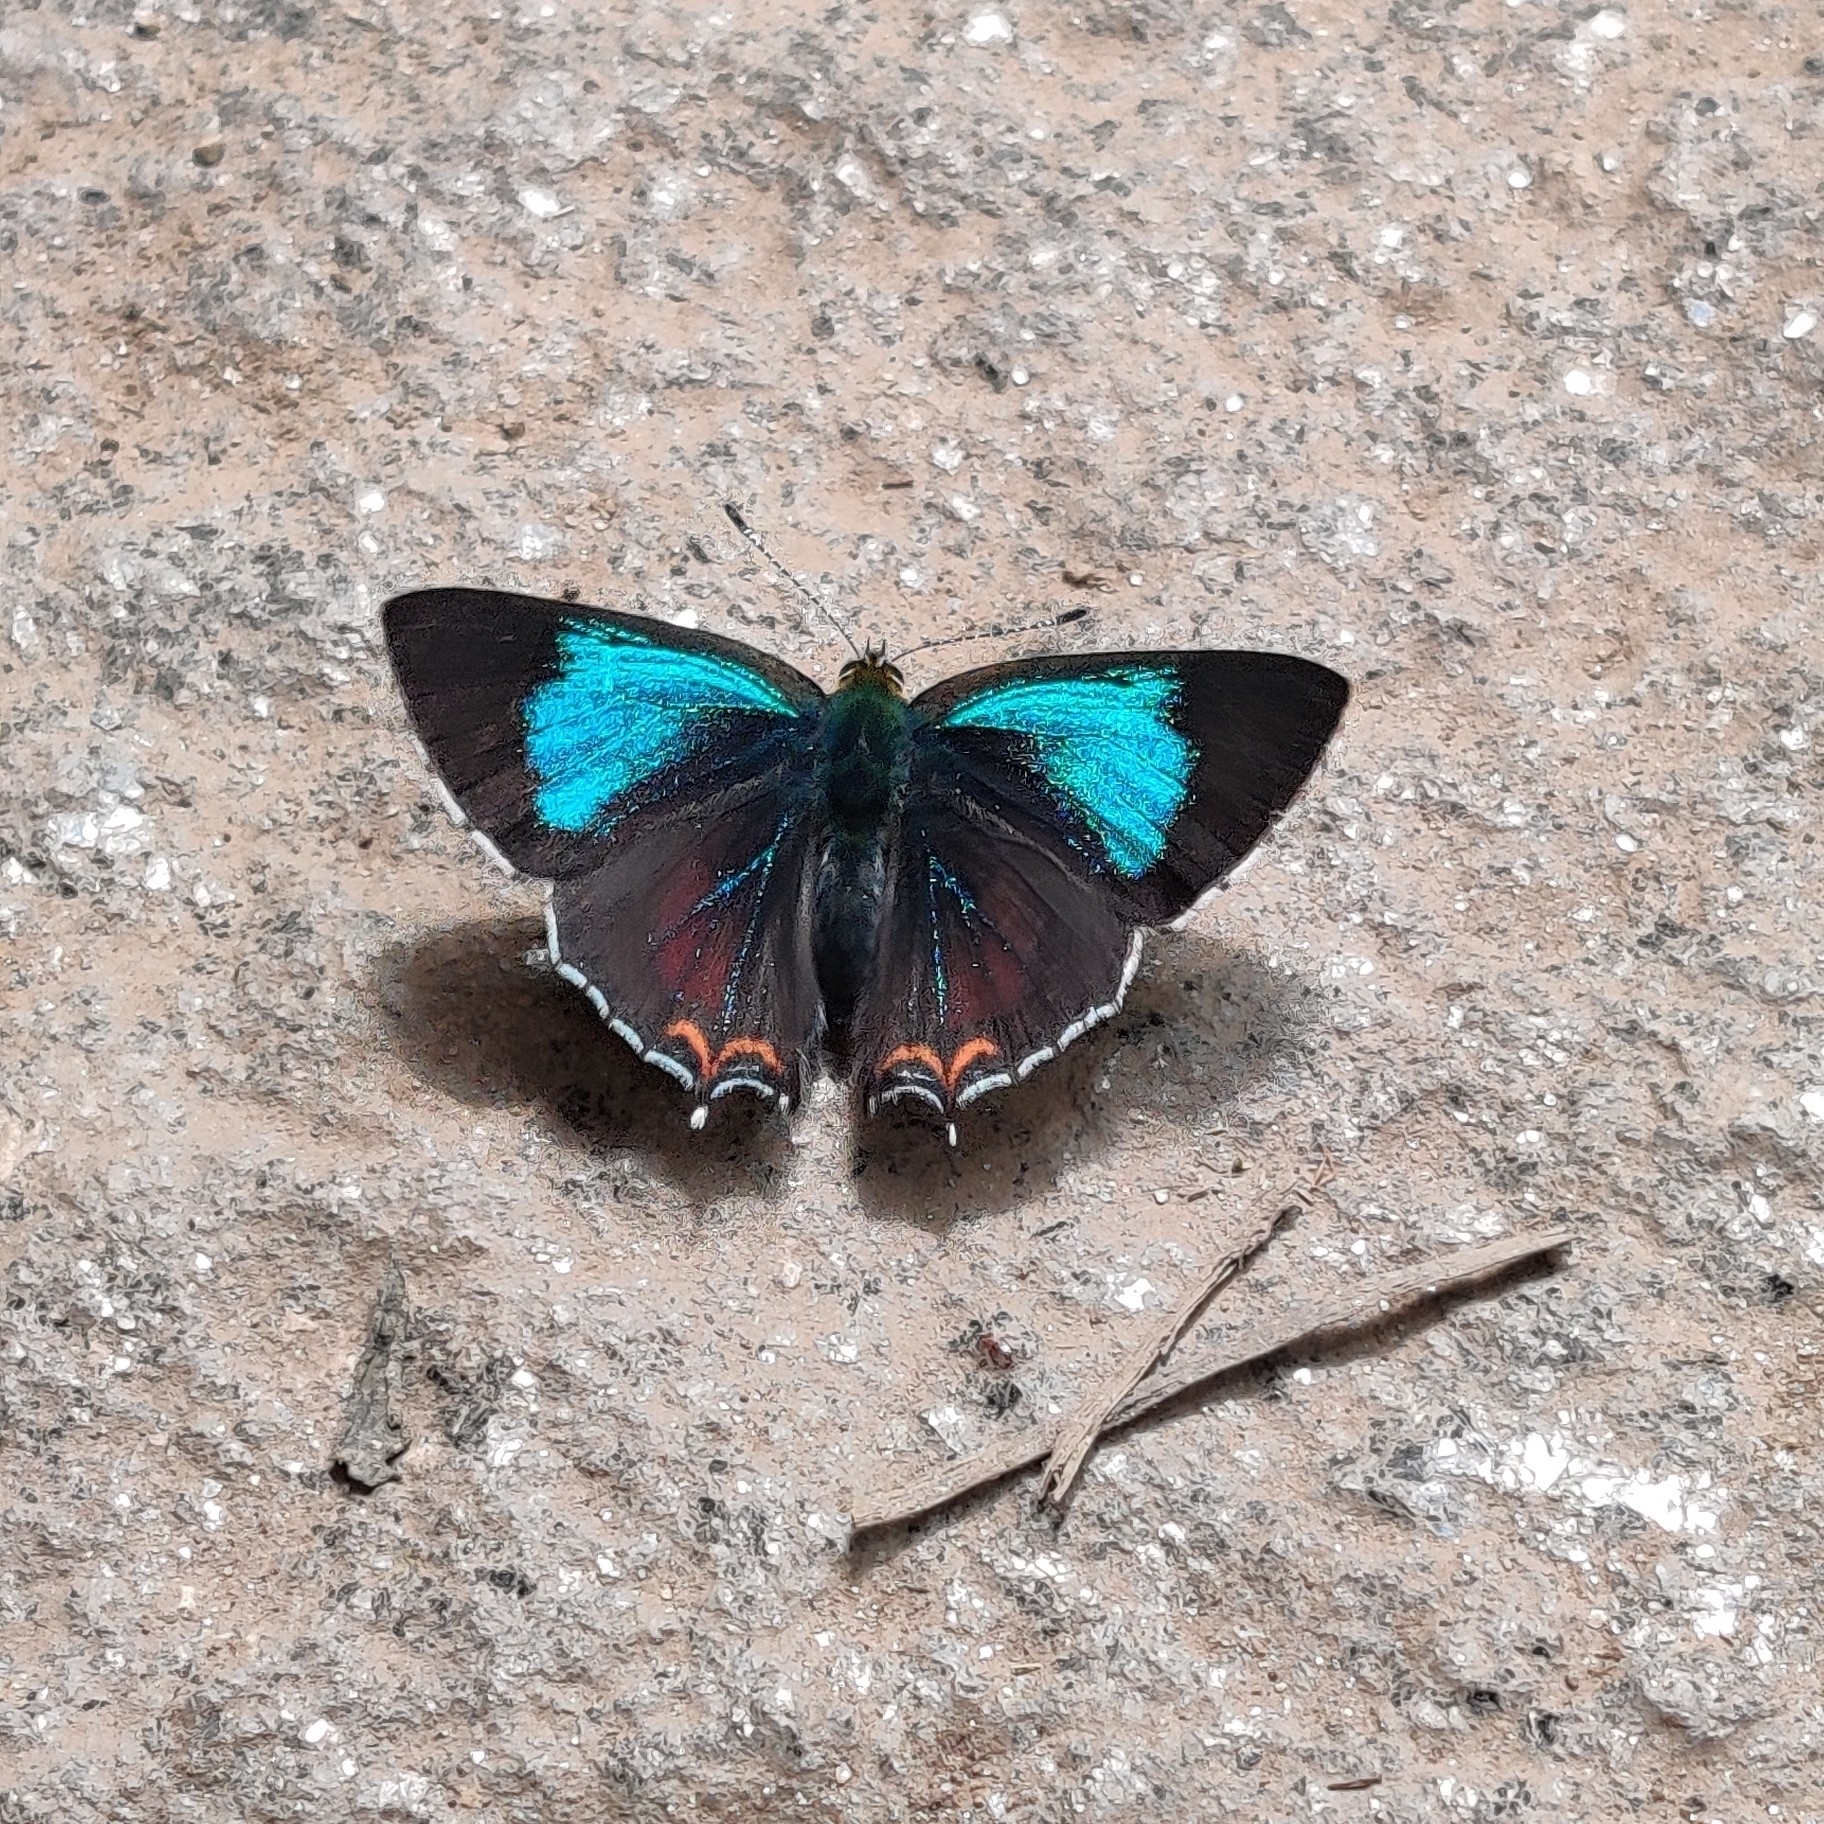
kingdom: Animalia
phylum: Arthropoda
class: Insecta
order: Lepidoptera
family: Lycaenidae
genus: Heliophorus
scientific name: Heliophorus
